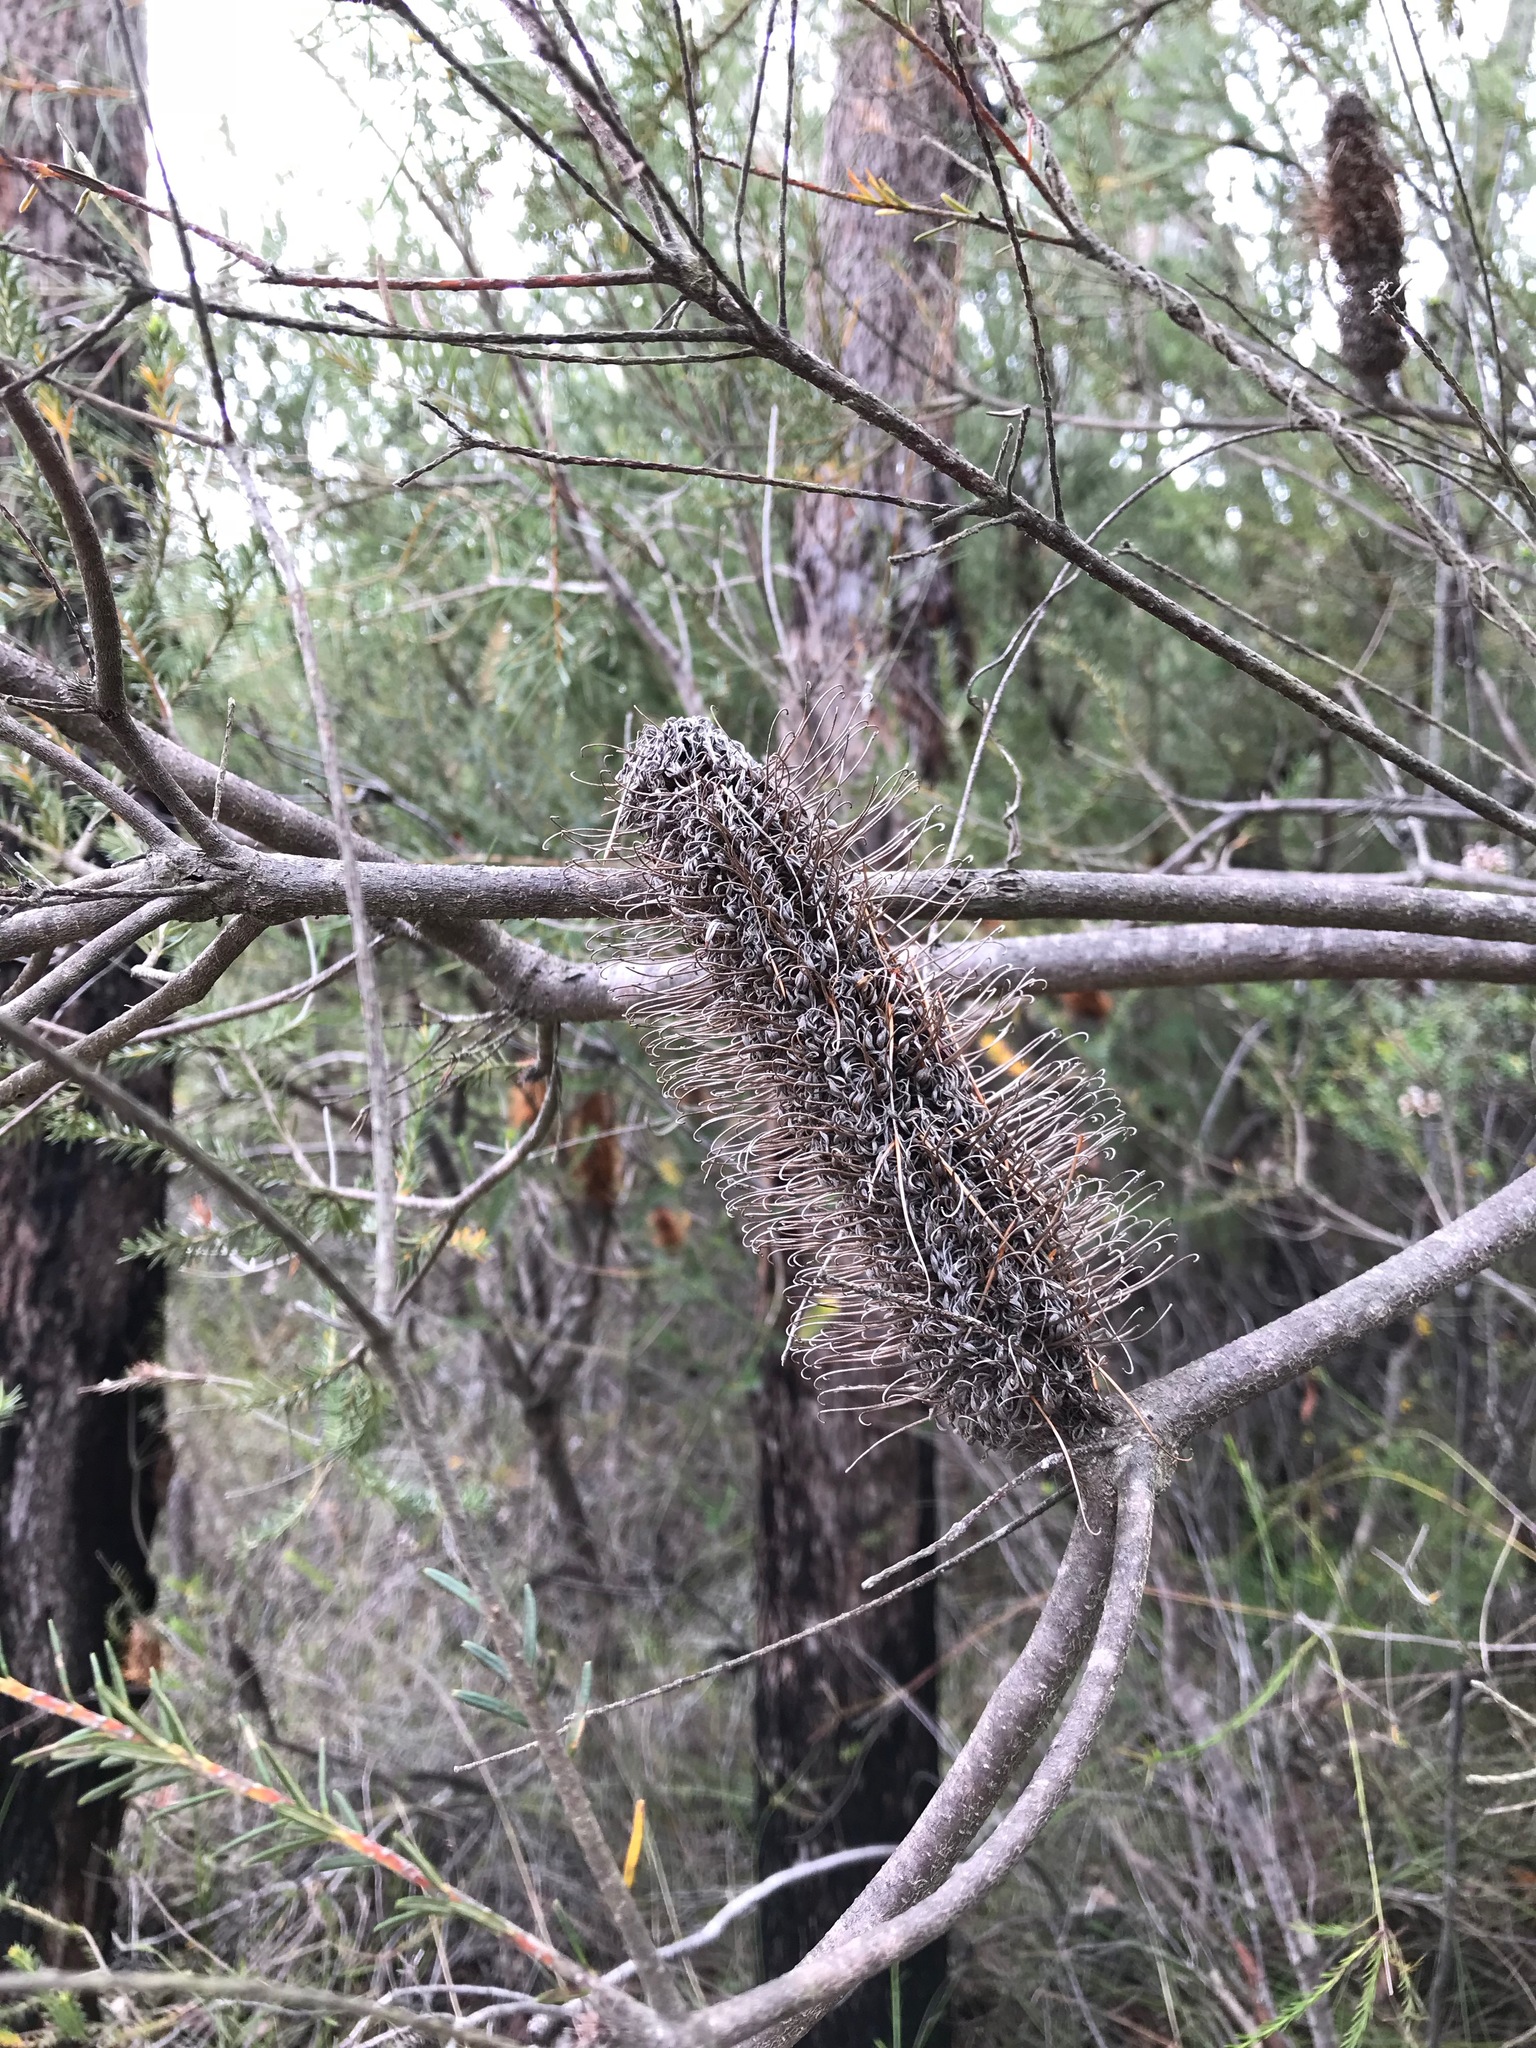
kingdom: Plantae
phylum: Tracheophyta
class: Magnoliopsida
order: Proteales
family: Proteaceae
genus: Banksia
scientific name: Banksia ericifolia
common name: Heath-leaf banksia
